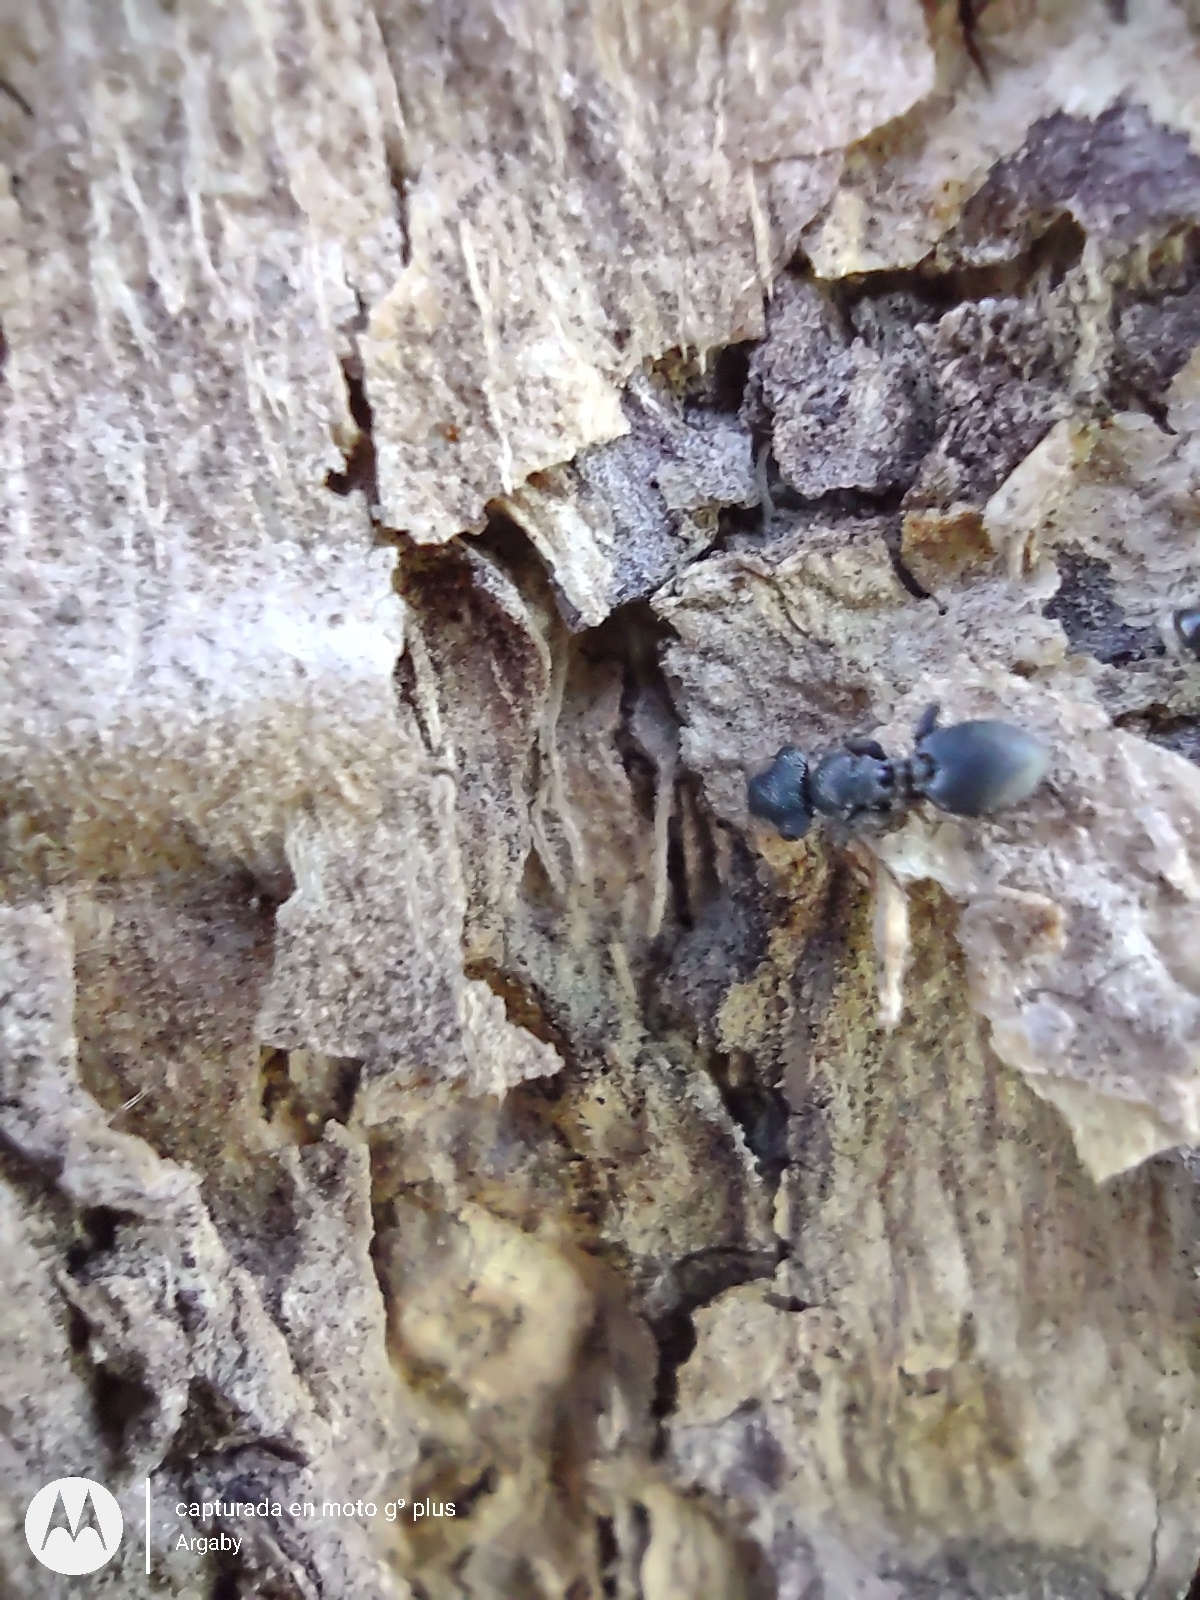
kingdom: Animalia
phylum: Arthropoda
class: Insecta
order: Hymenoptera
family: Formicidae
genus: Cephalotes
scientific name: Cephalotes jheringi
